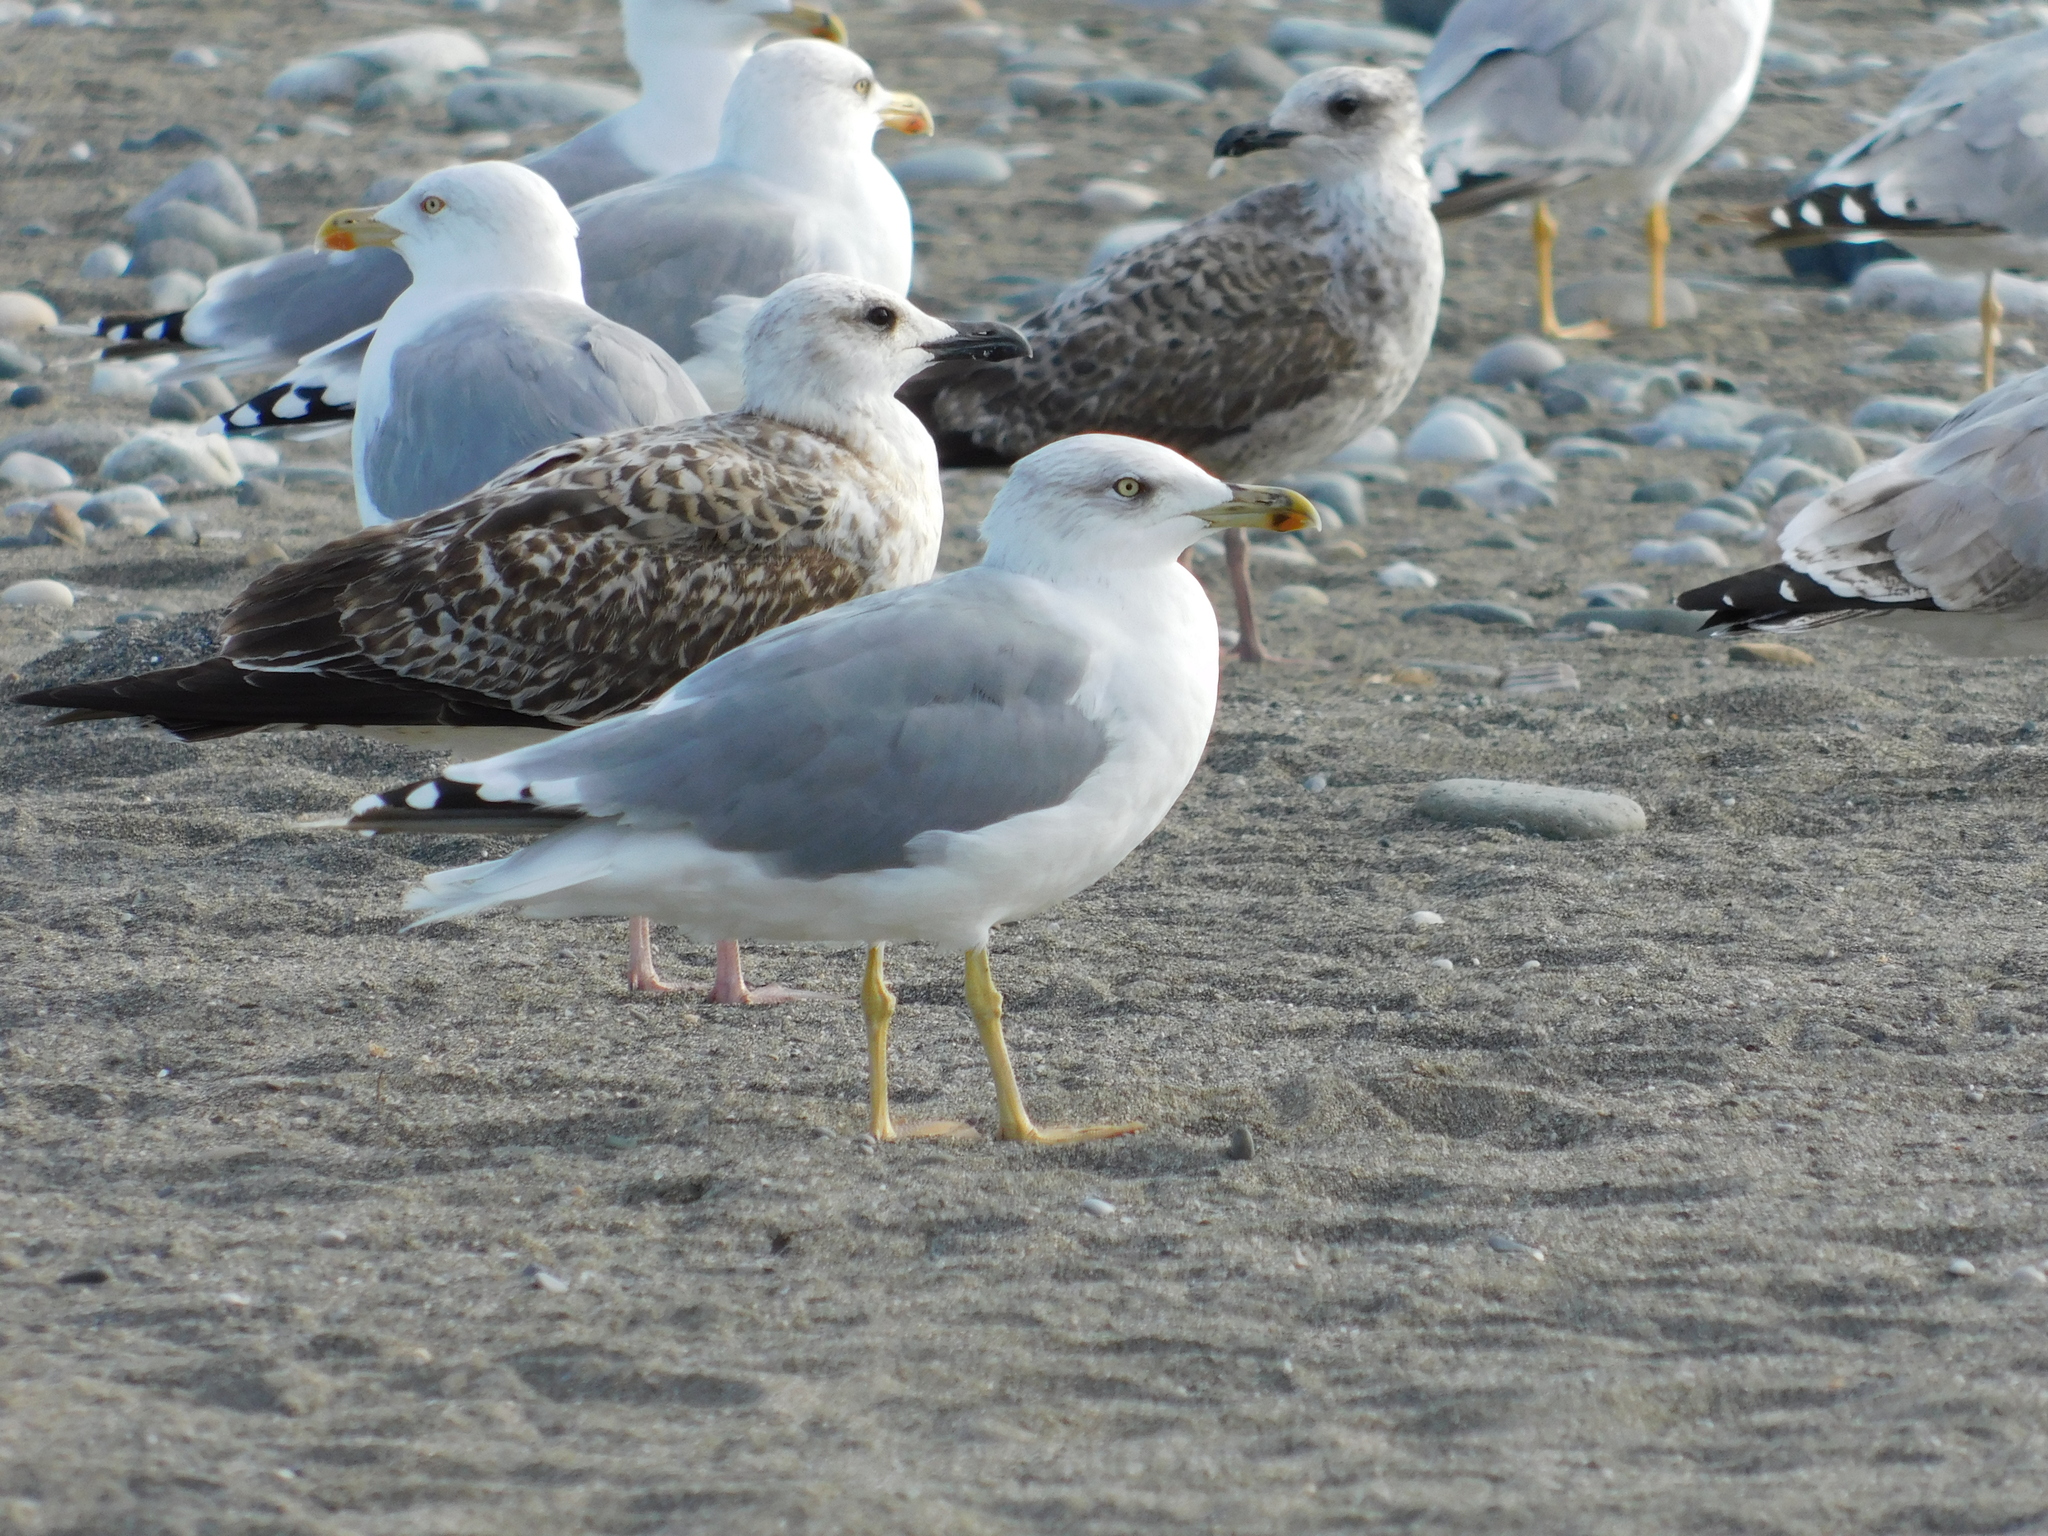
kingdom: Animalia
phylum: Chordata
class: Aves
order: Charadriiformes
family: Laridae
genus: Larus
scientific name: Larus michahellis
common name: Yellow-legged gull
